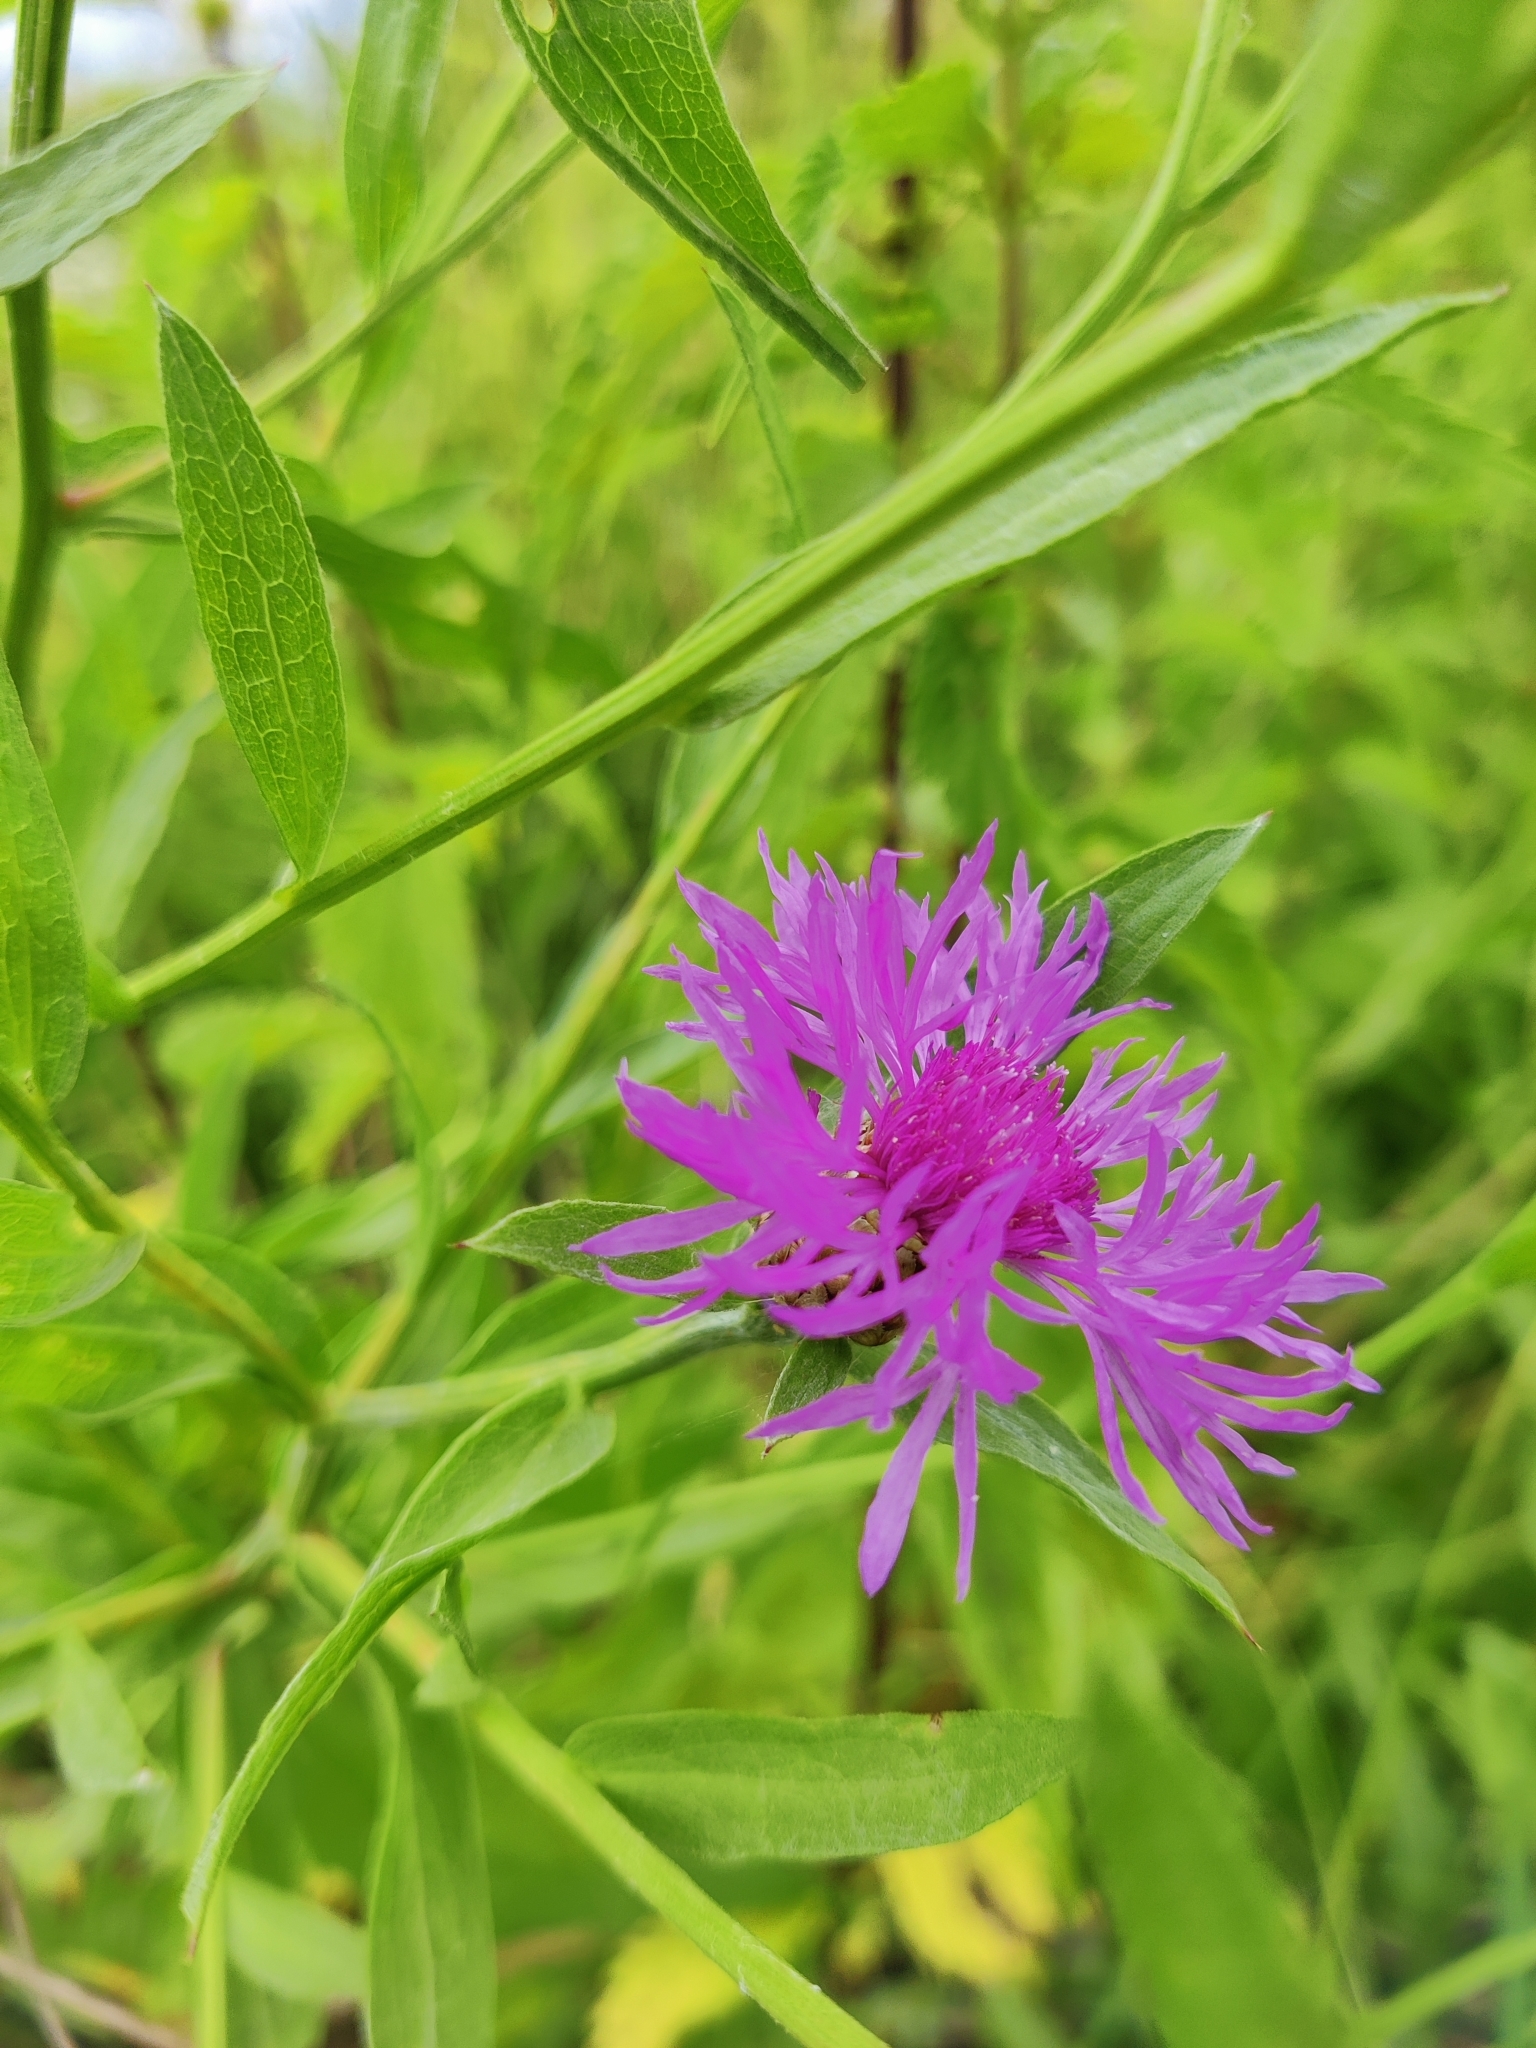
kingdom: Plantae
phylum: Tracheophyta
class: Magnoliopsida
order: Asterales
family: Asteraceae
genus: Centaurea
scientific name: Centaurea jacea
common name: Brown knapweed
